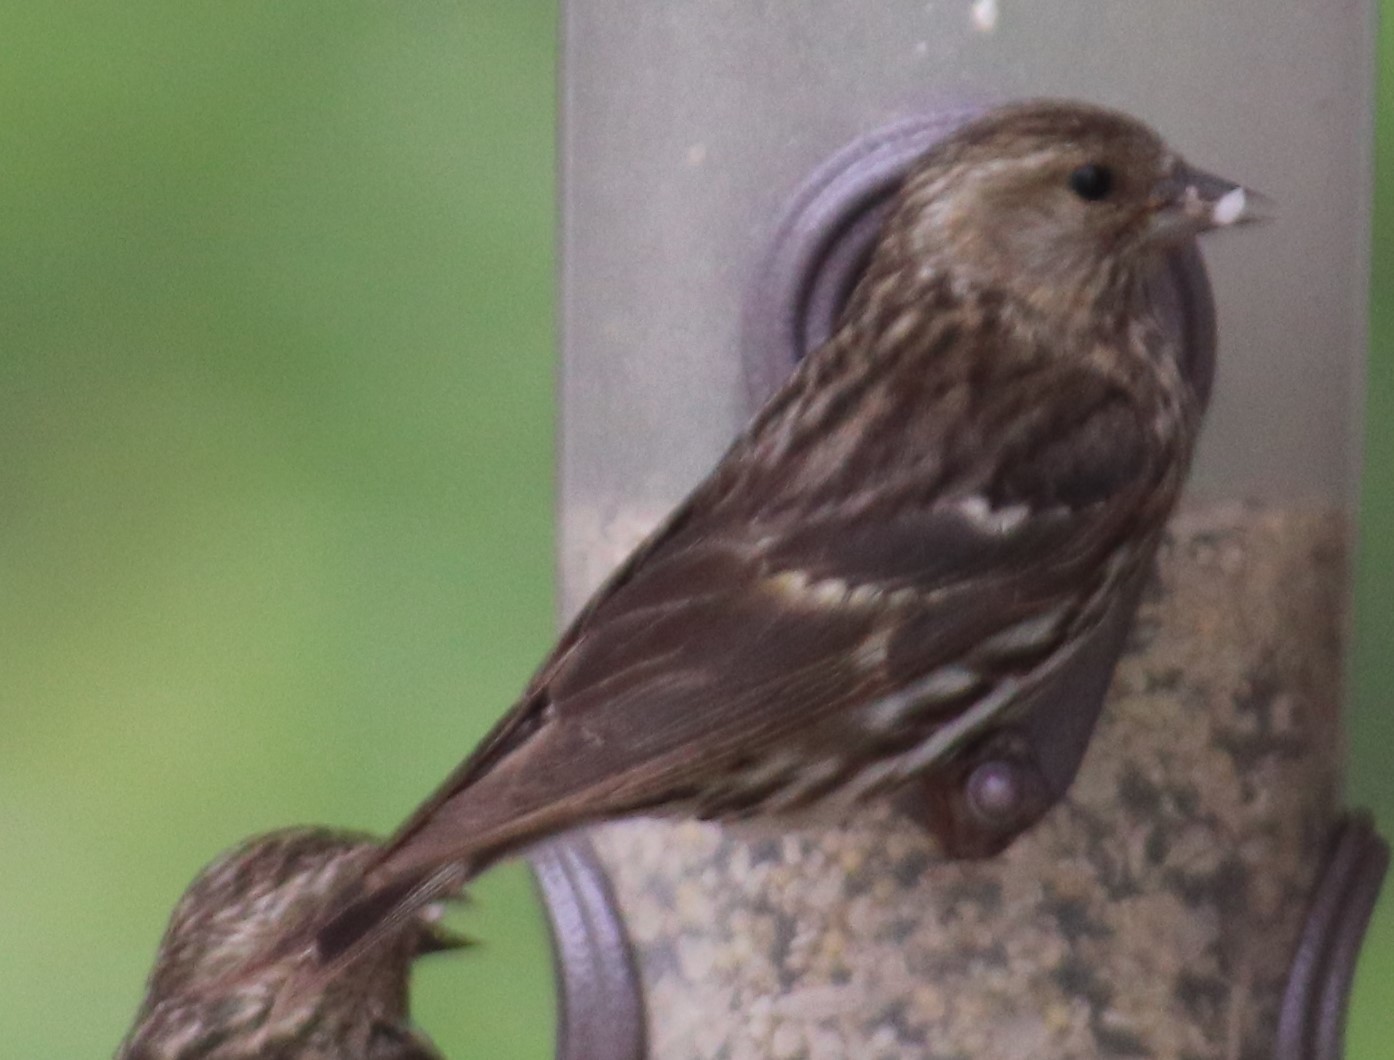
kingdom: Animalia
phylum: Chordata
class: Aves
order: Passeriformes
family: Fringillidae
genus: Spinus
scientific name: Spinus pinus
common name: Pine siskin
